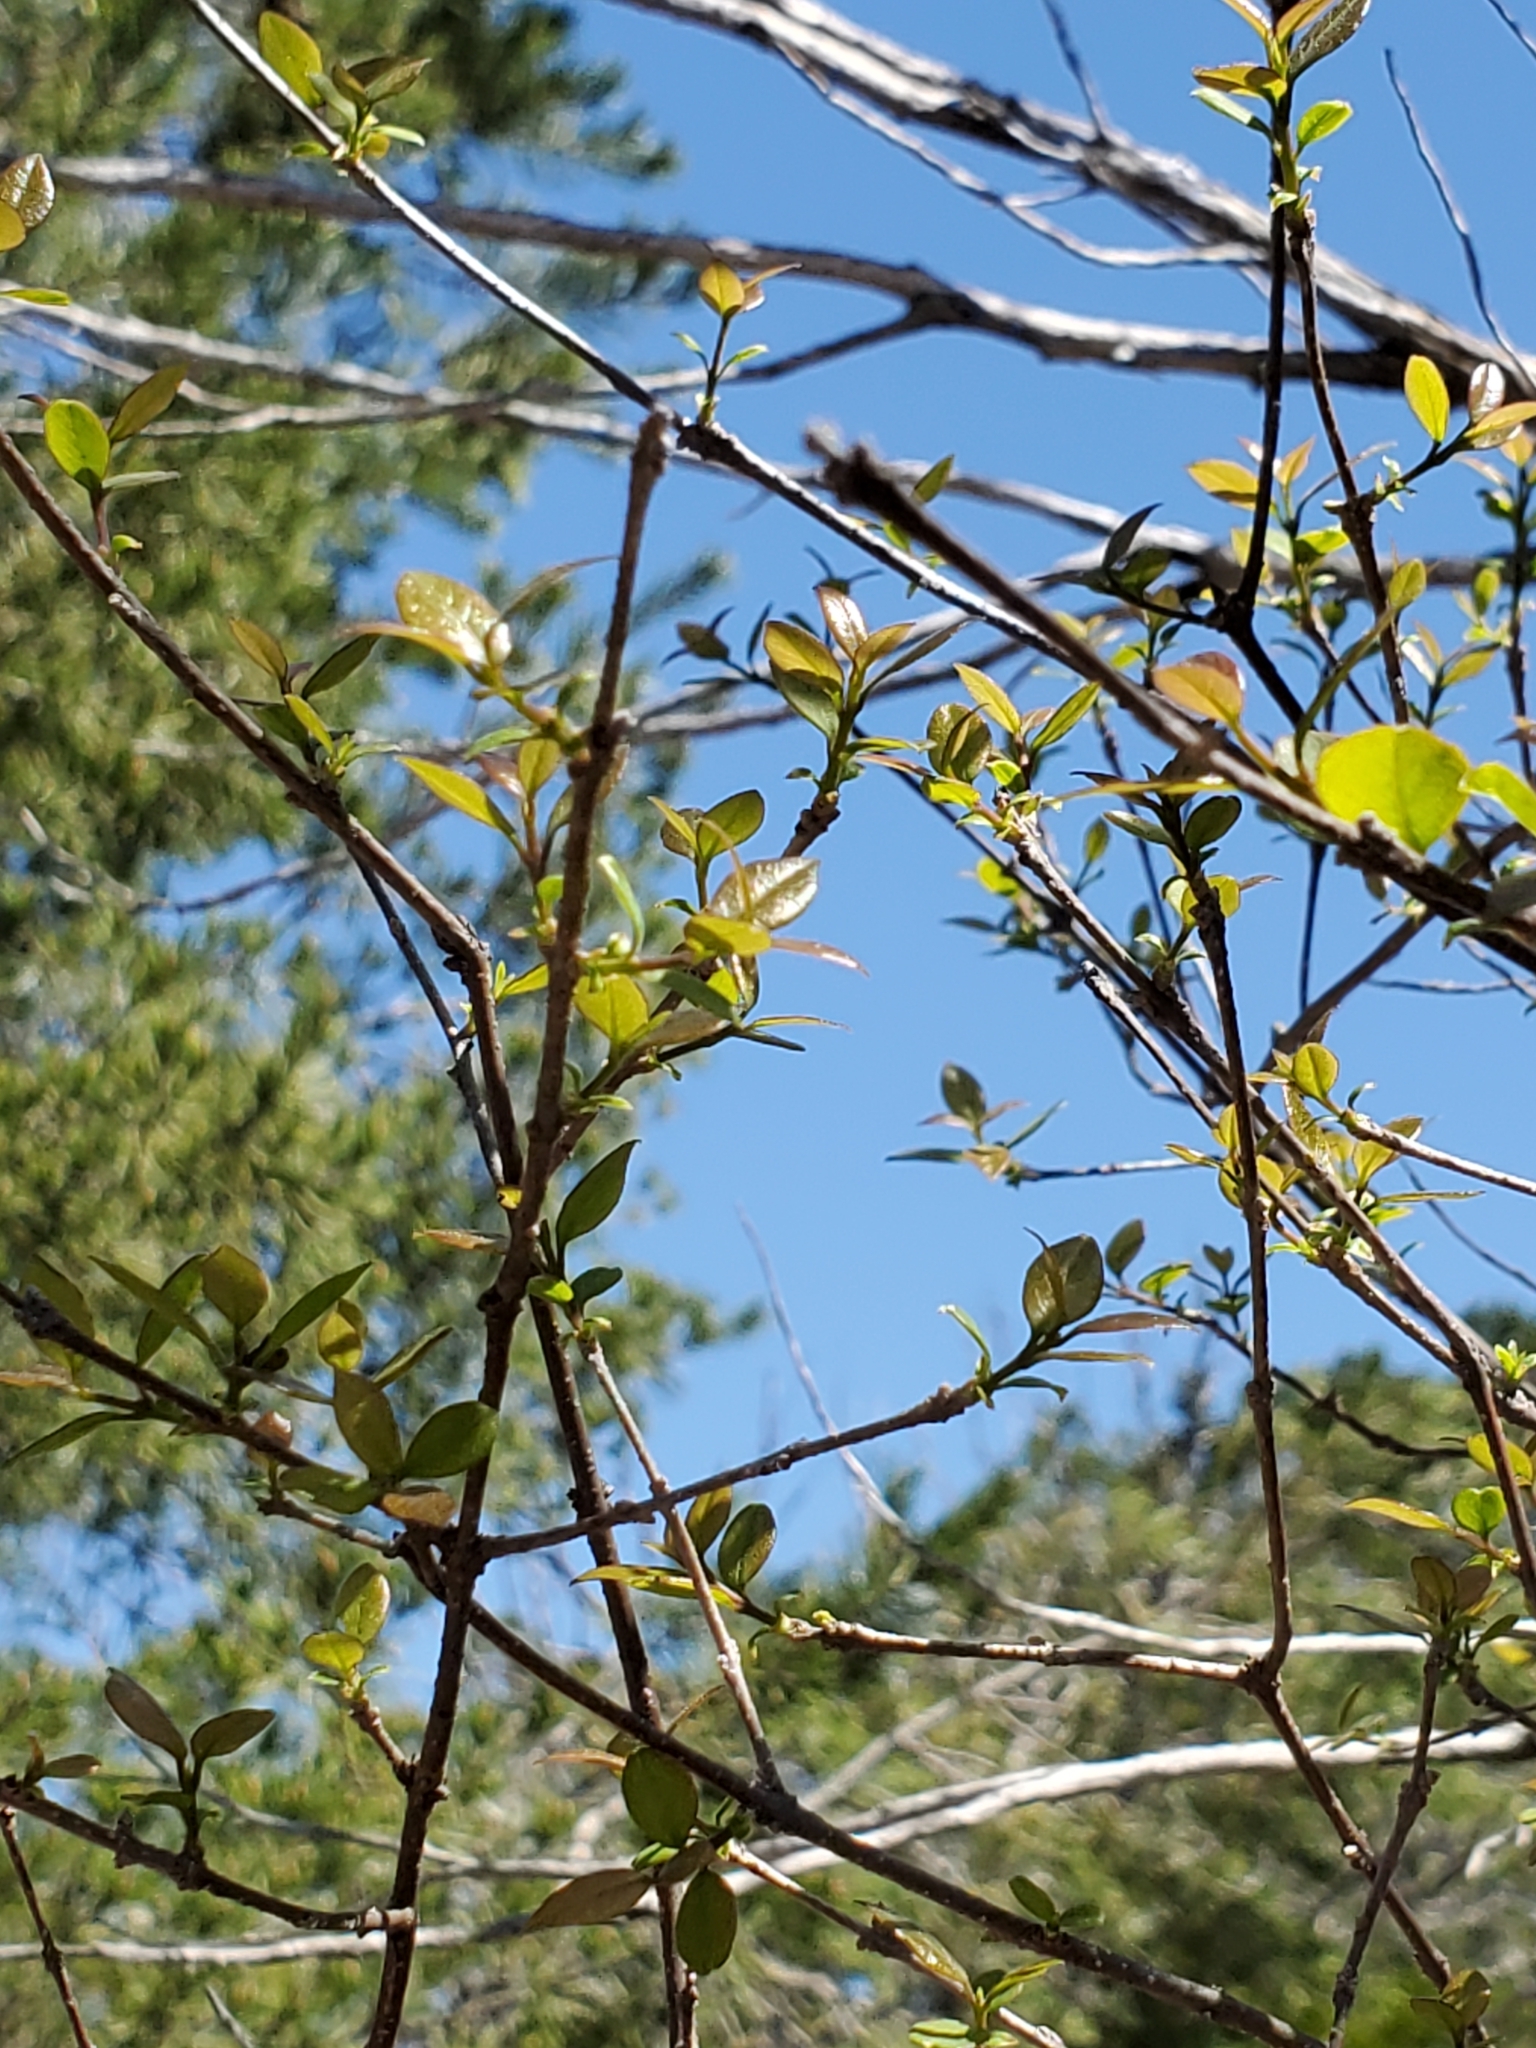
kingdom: Plantae
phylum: Tracheophyta
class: Magnoliopsida
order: Lamiales
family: Oleaceae
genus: Forestiera
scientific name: Forestiera reticulata
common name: Netleaf swamp-privet
